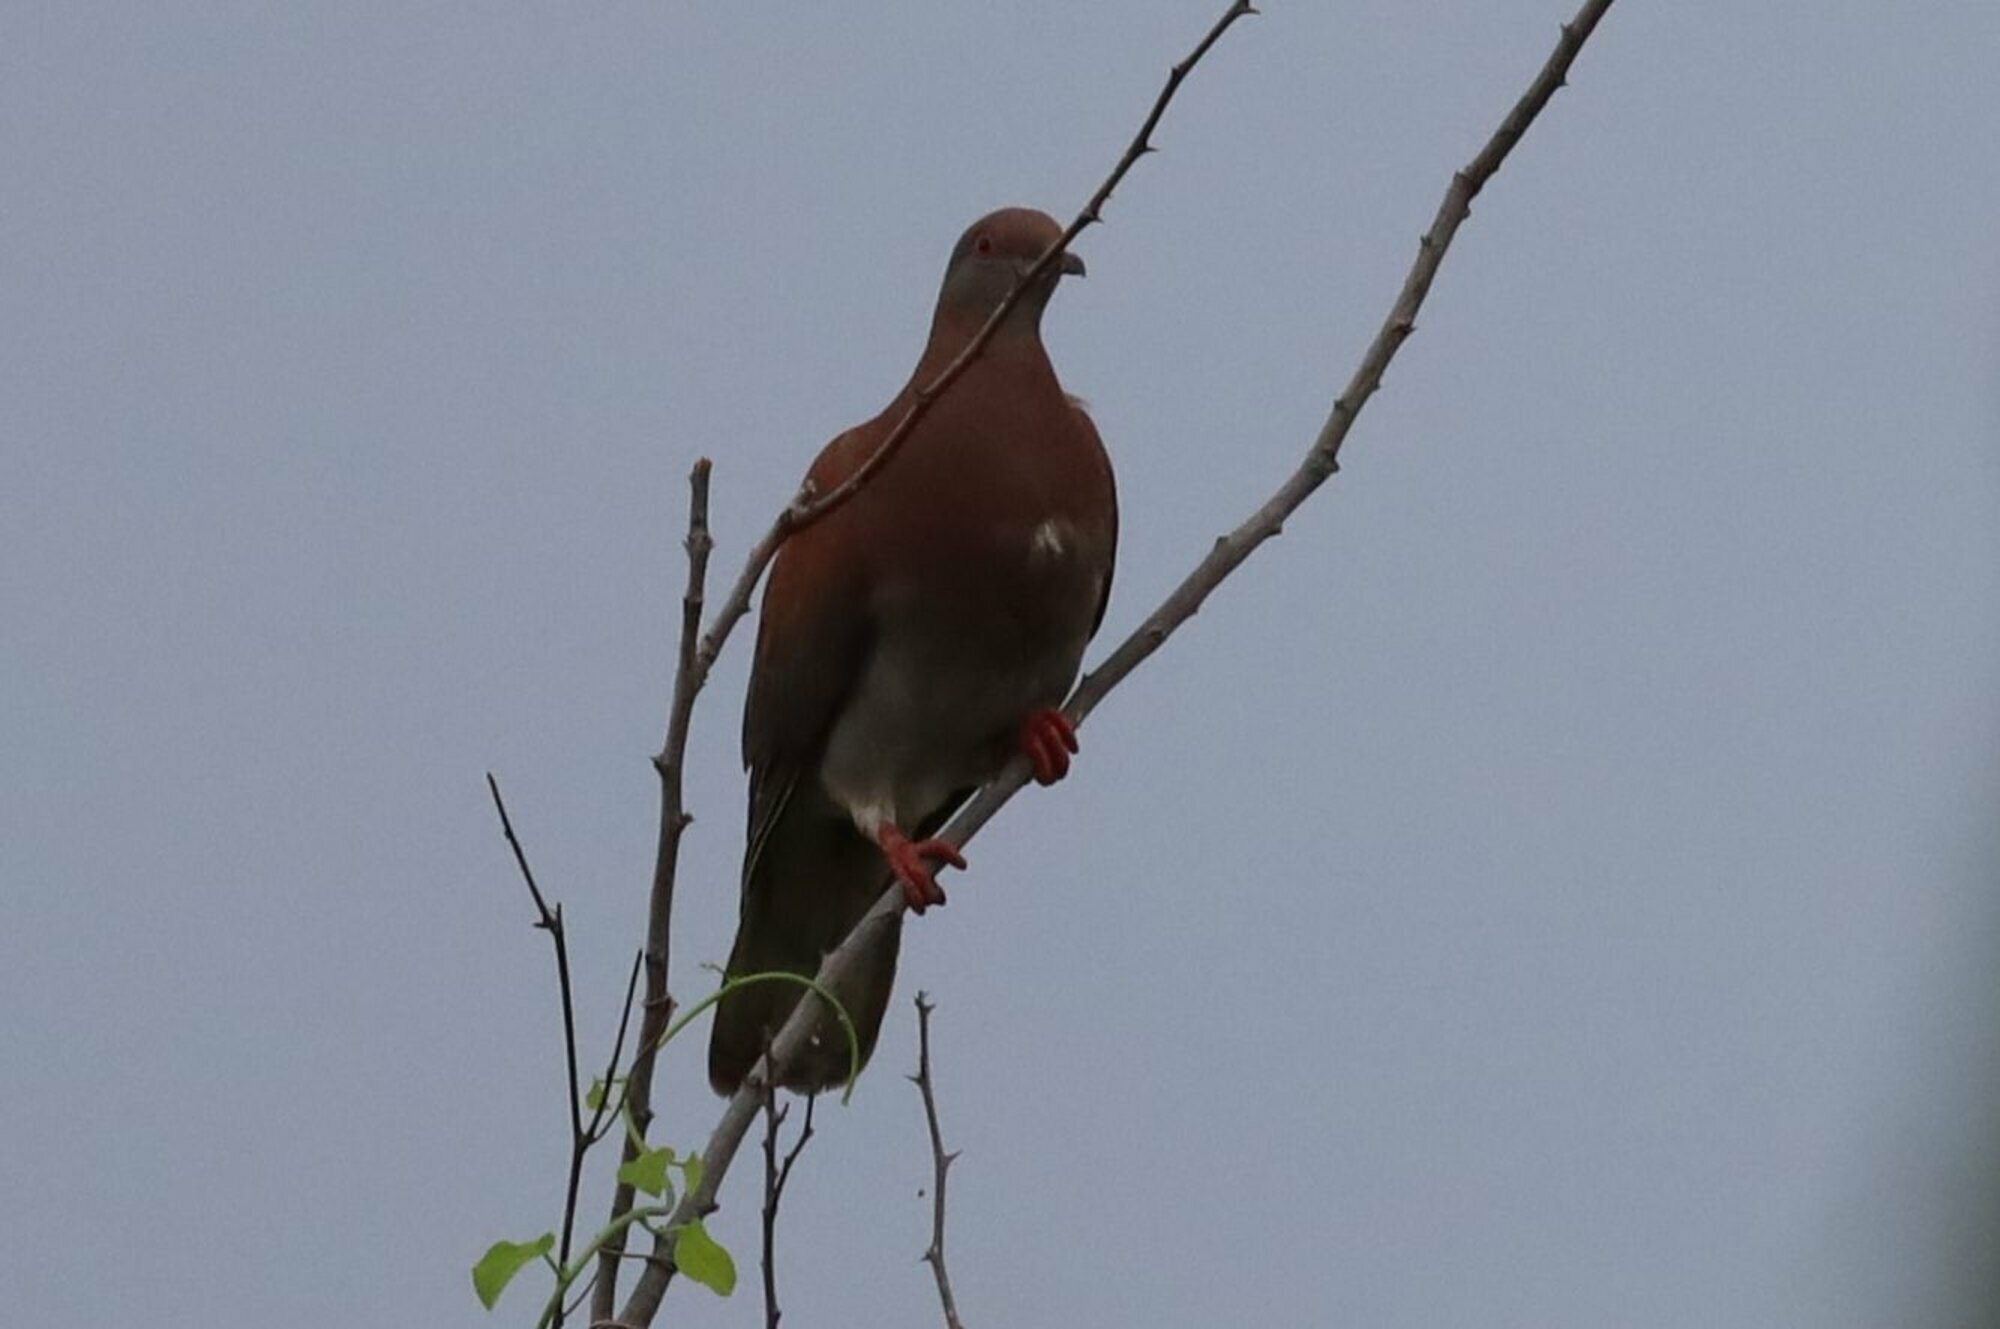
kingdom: Animalia
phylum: Chordata
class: Aves
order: Columbiformes
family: Columbidae
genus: Patagioenas
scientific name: Patagioenas cayennensis
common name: Pale-vented pigeon
